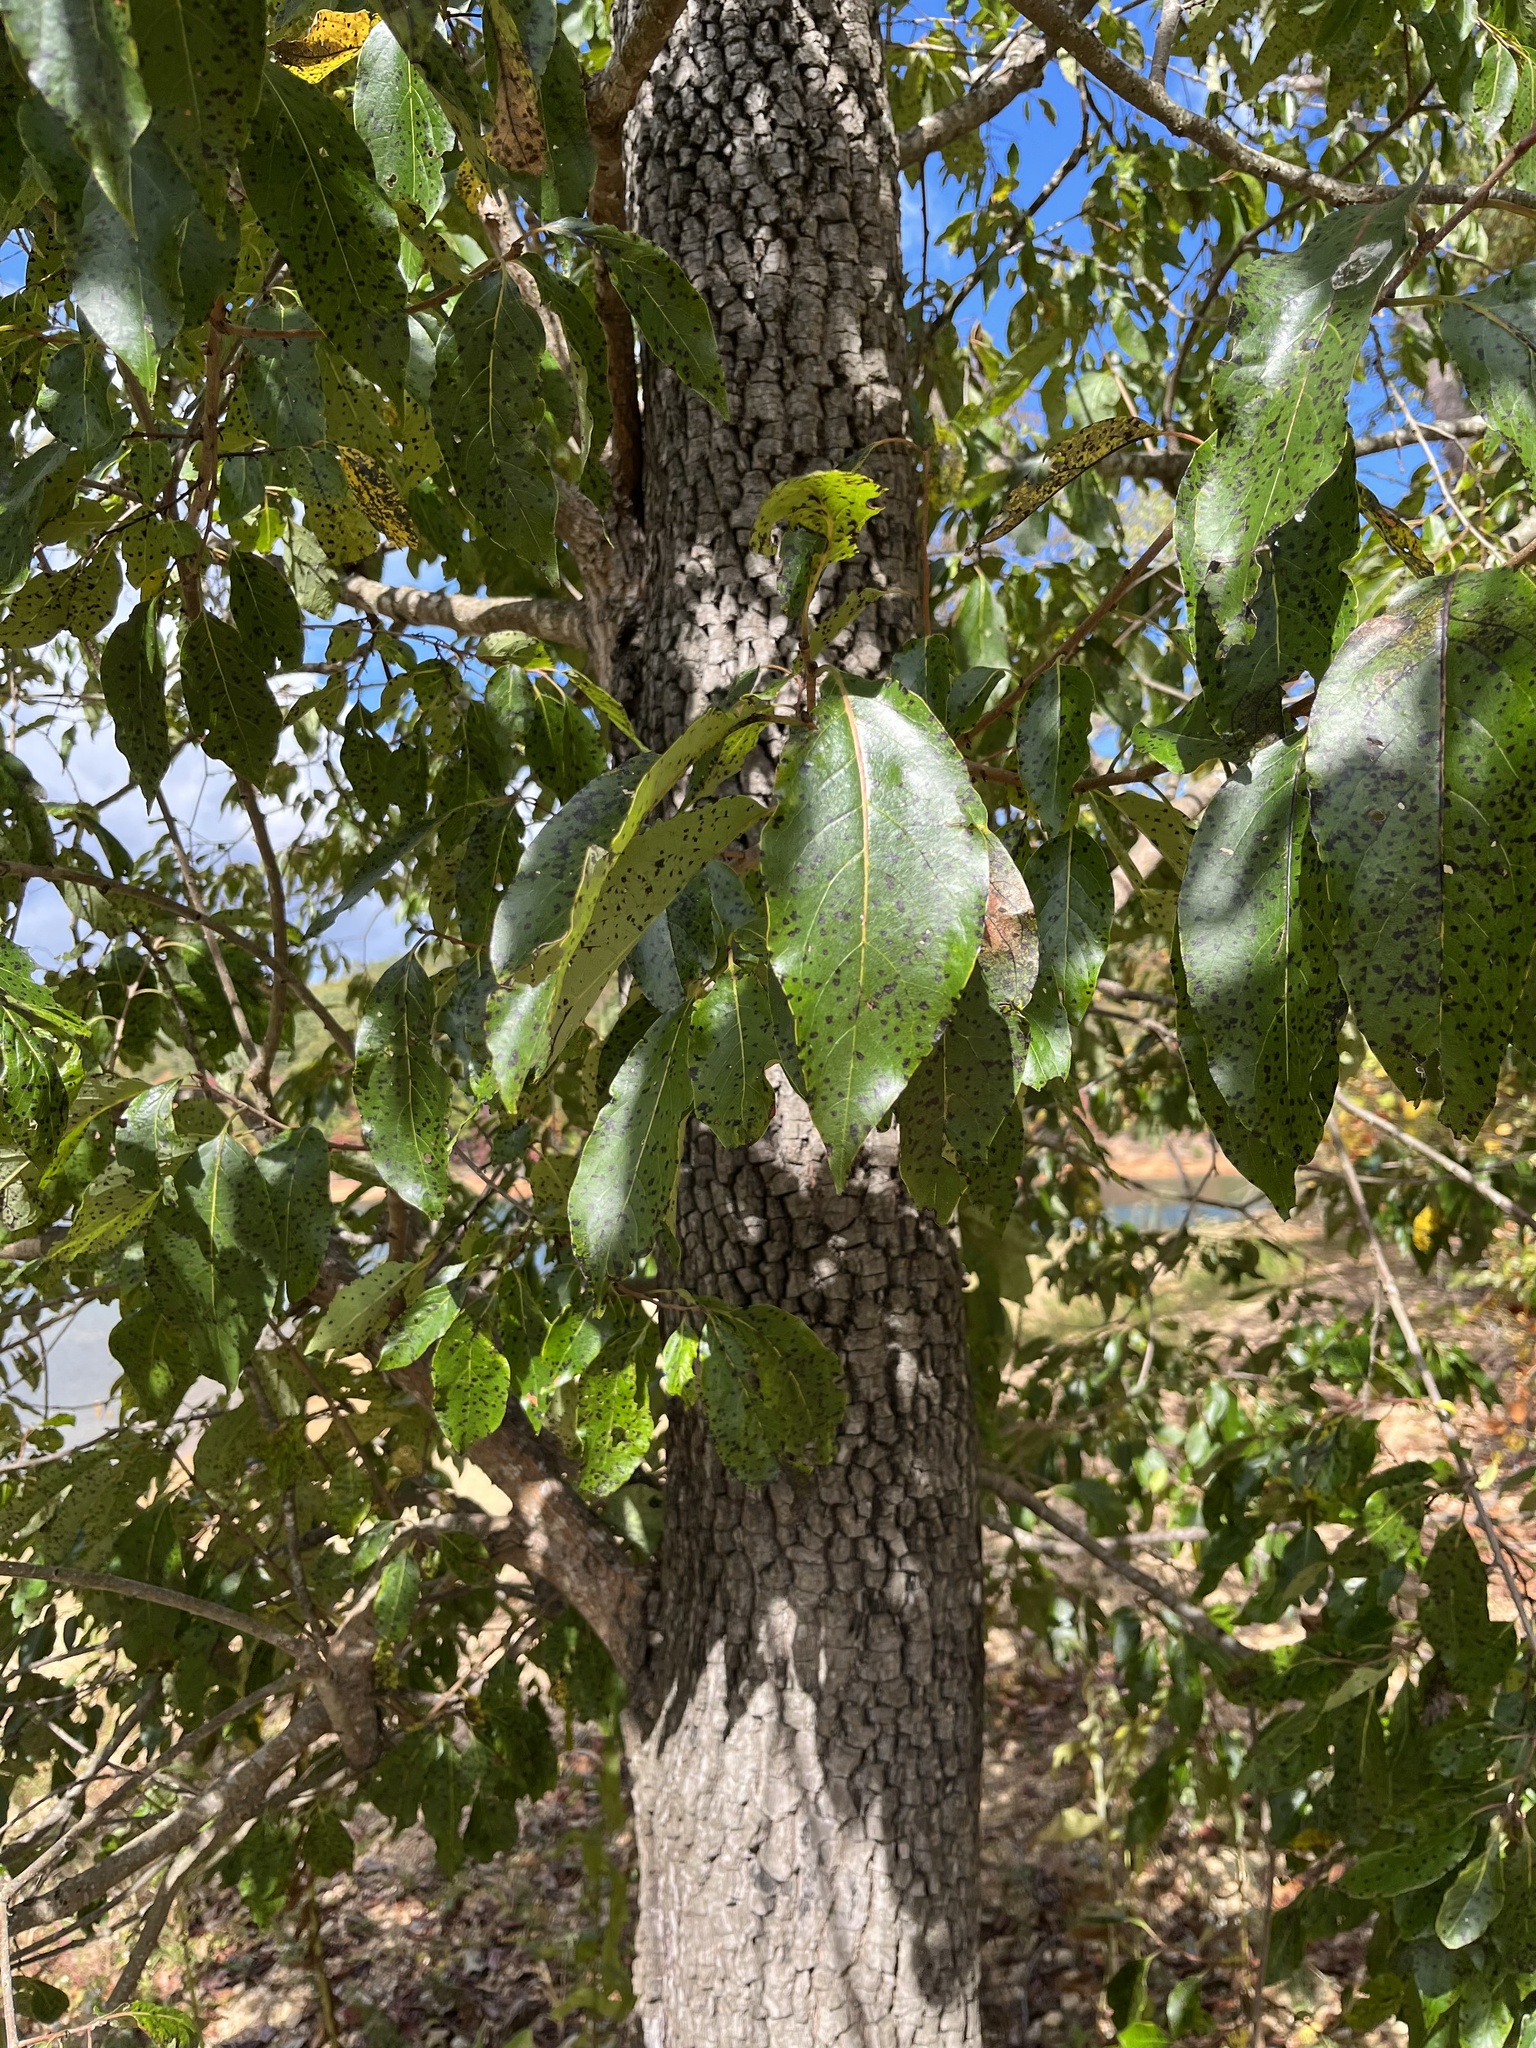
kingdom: Plantae
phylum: Tracheophyta
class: Magnoliopsida
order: Ericales
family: Ebenaceae
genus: Diospyros
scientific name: Diospyros virginiana
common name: Persimmon
